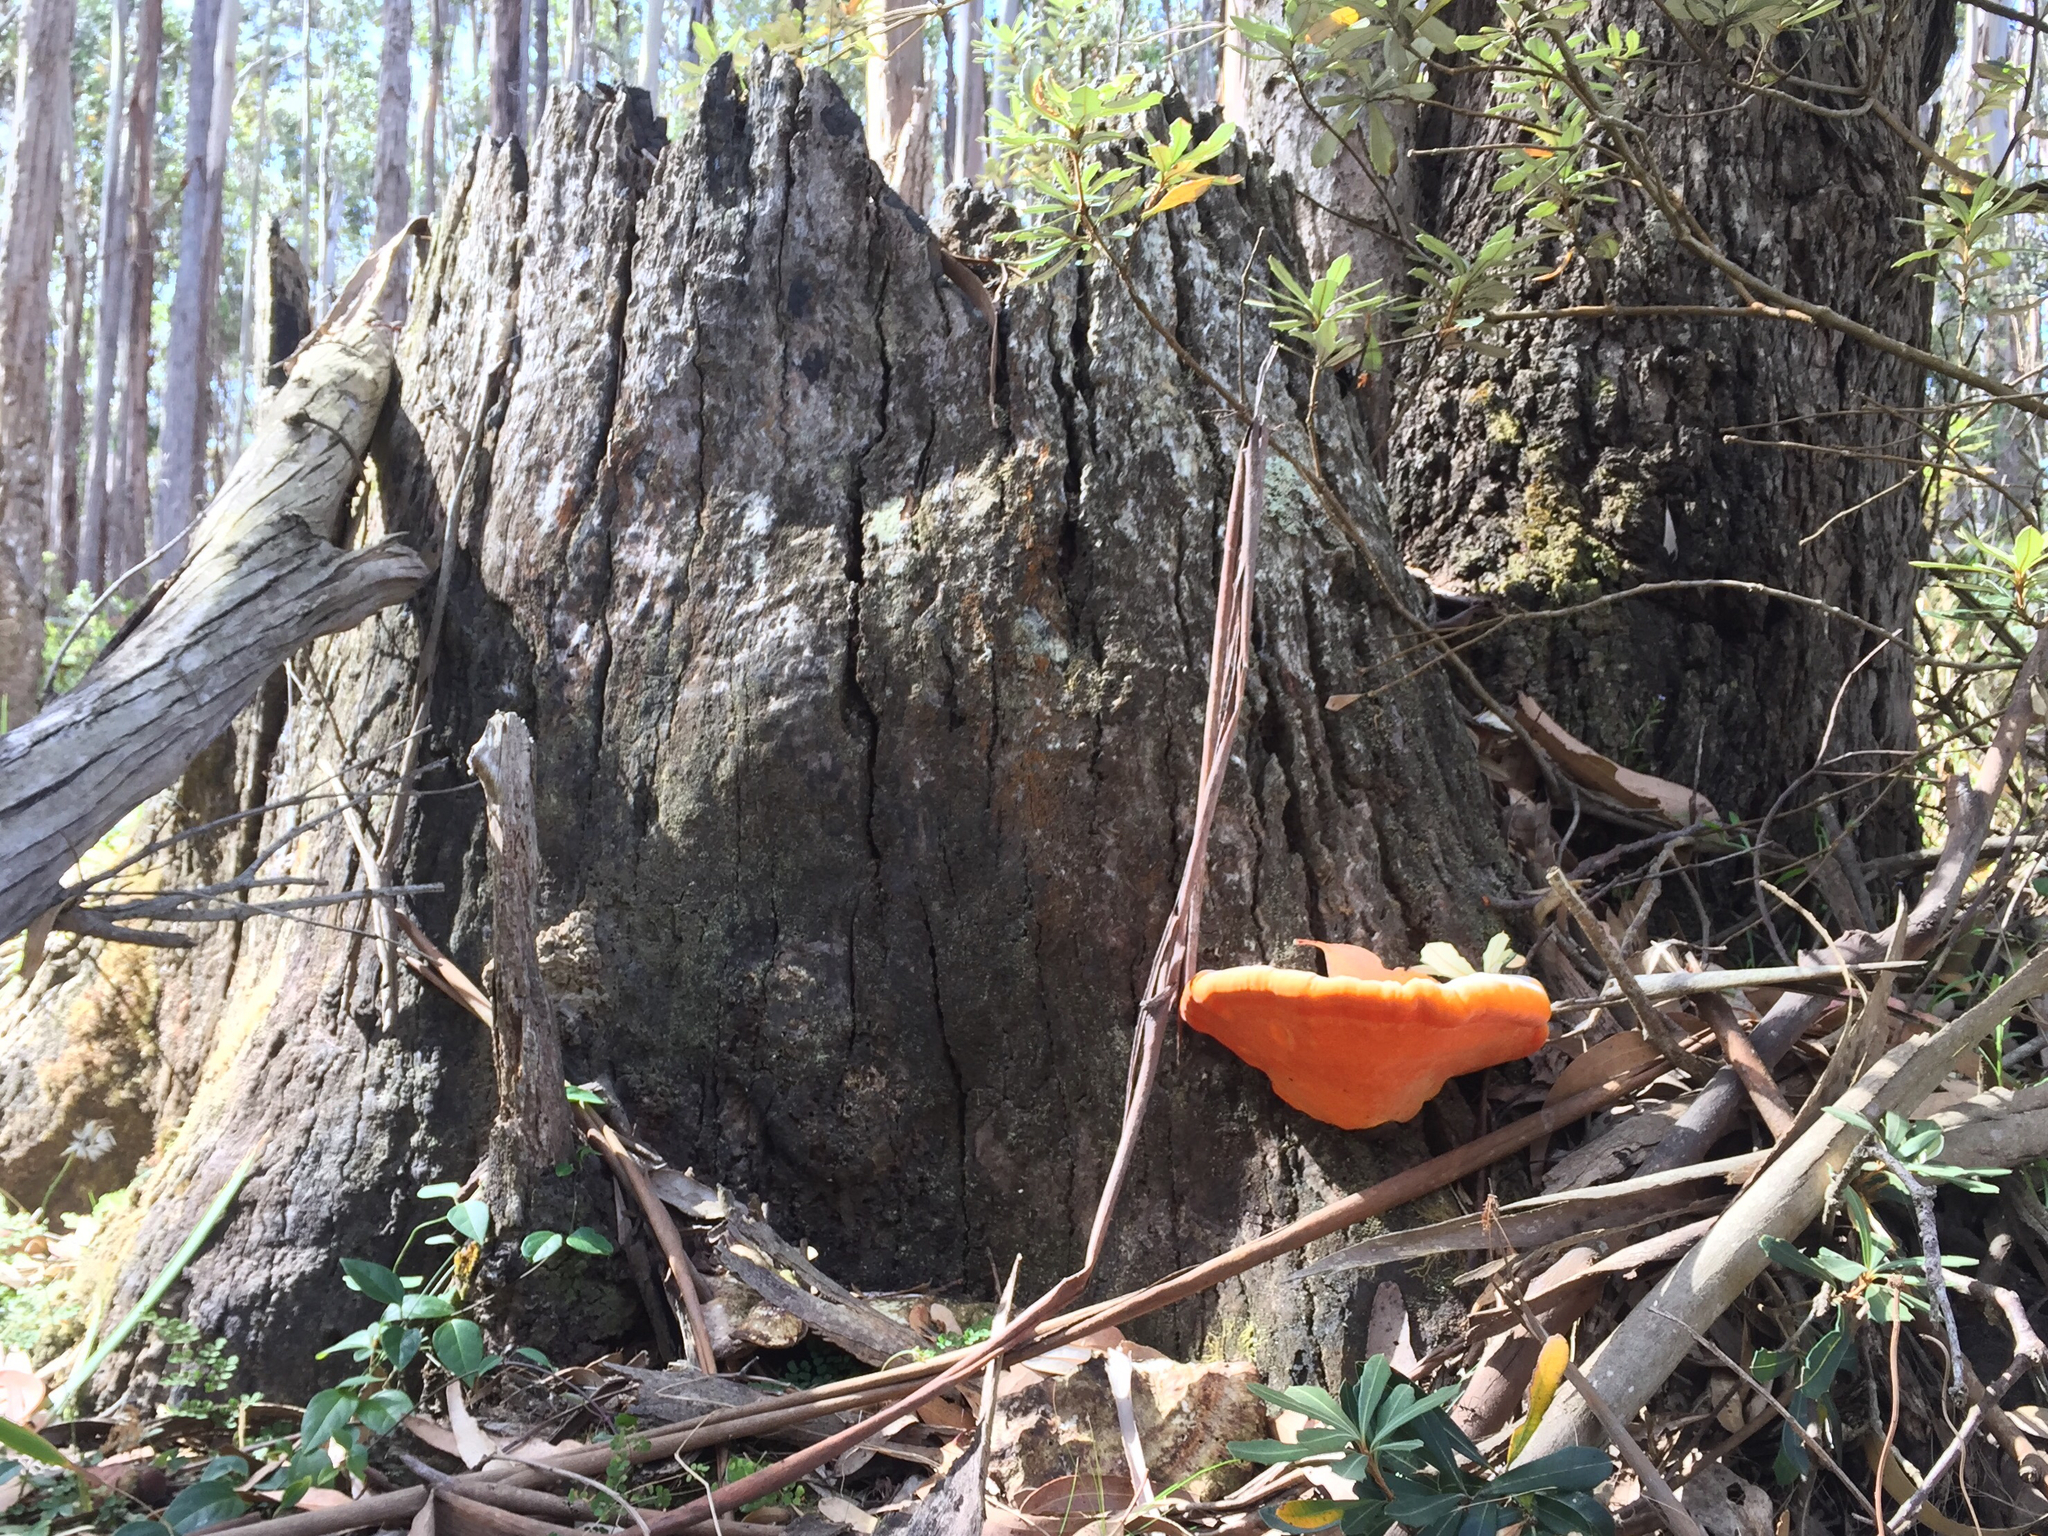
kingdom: Fungi
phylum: Basidiomycota
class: Agaricomycetes
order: Polyporales
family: Polyporaceae
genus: Trametes
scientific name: Trametes coccinea
